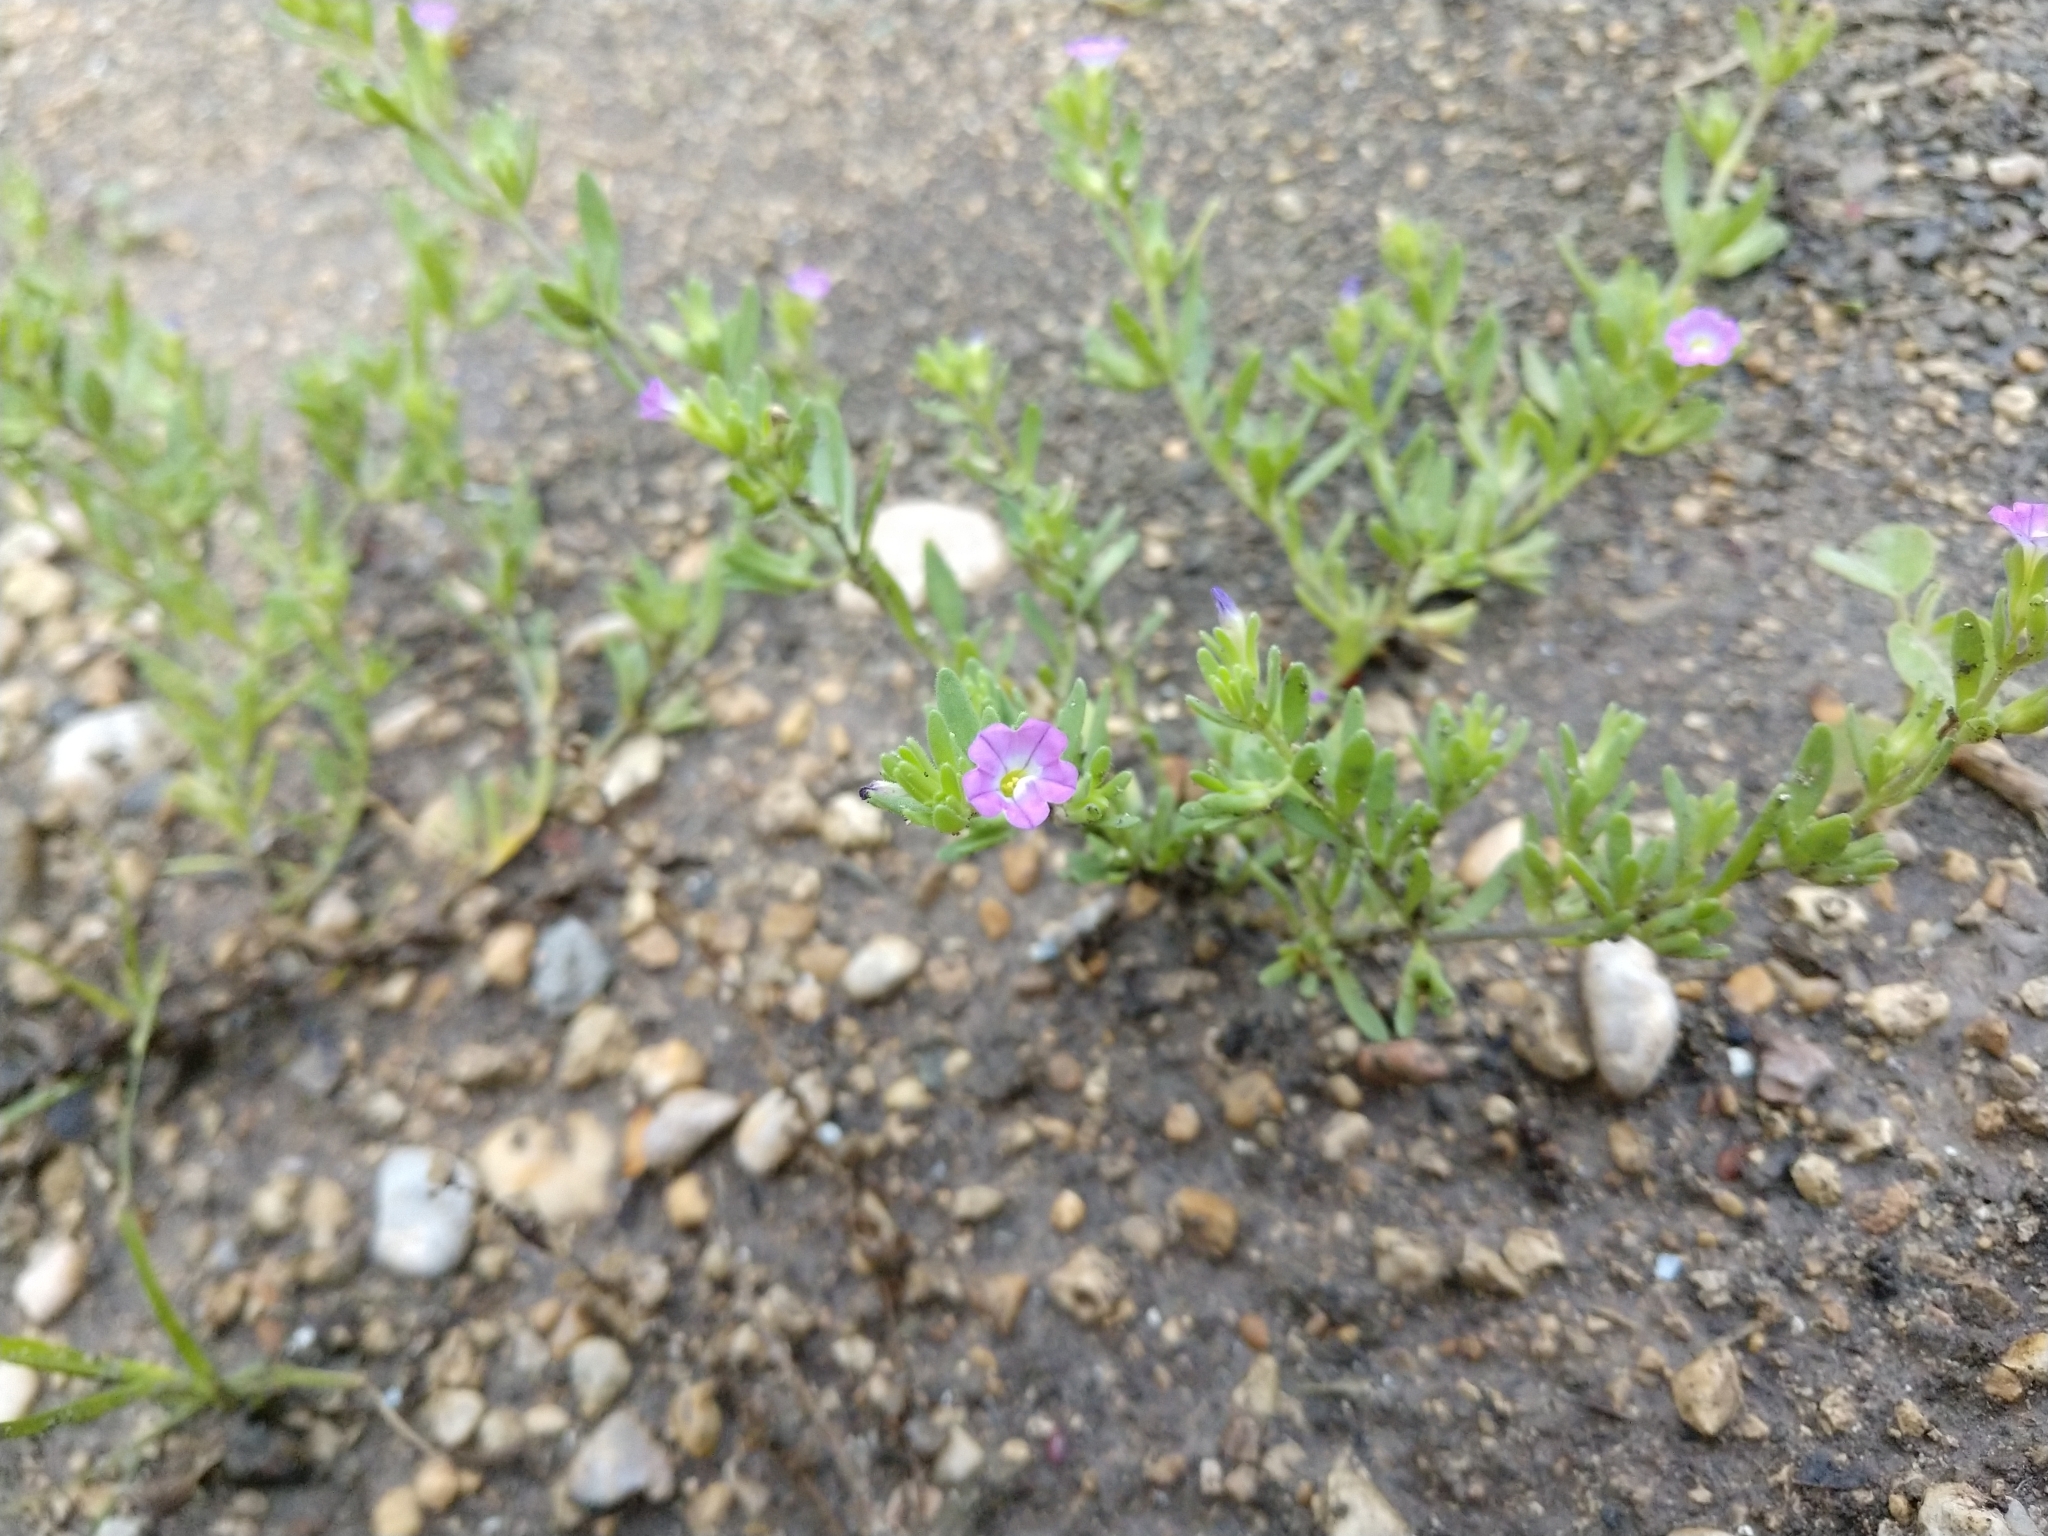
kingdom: Plantae
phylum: Tracheophyta
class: Magnoliopsida
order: Solanales
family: Solanaceae
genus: Calibrachoa
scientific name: Calibrachoa parviflora
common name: Seaside petunia
